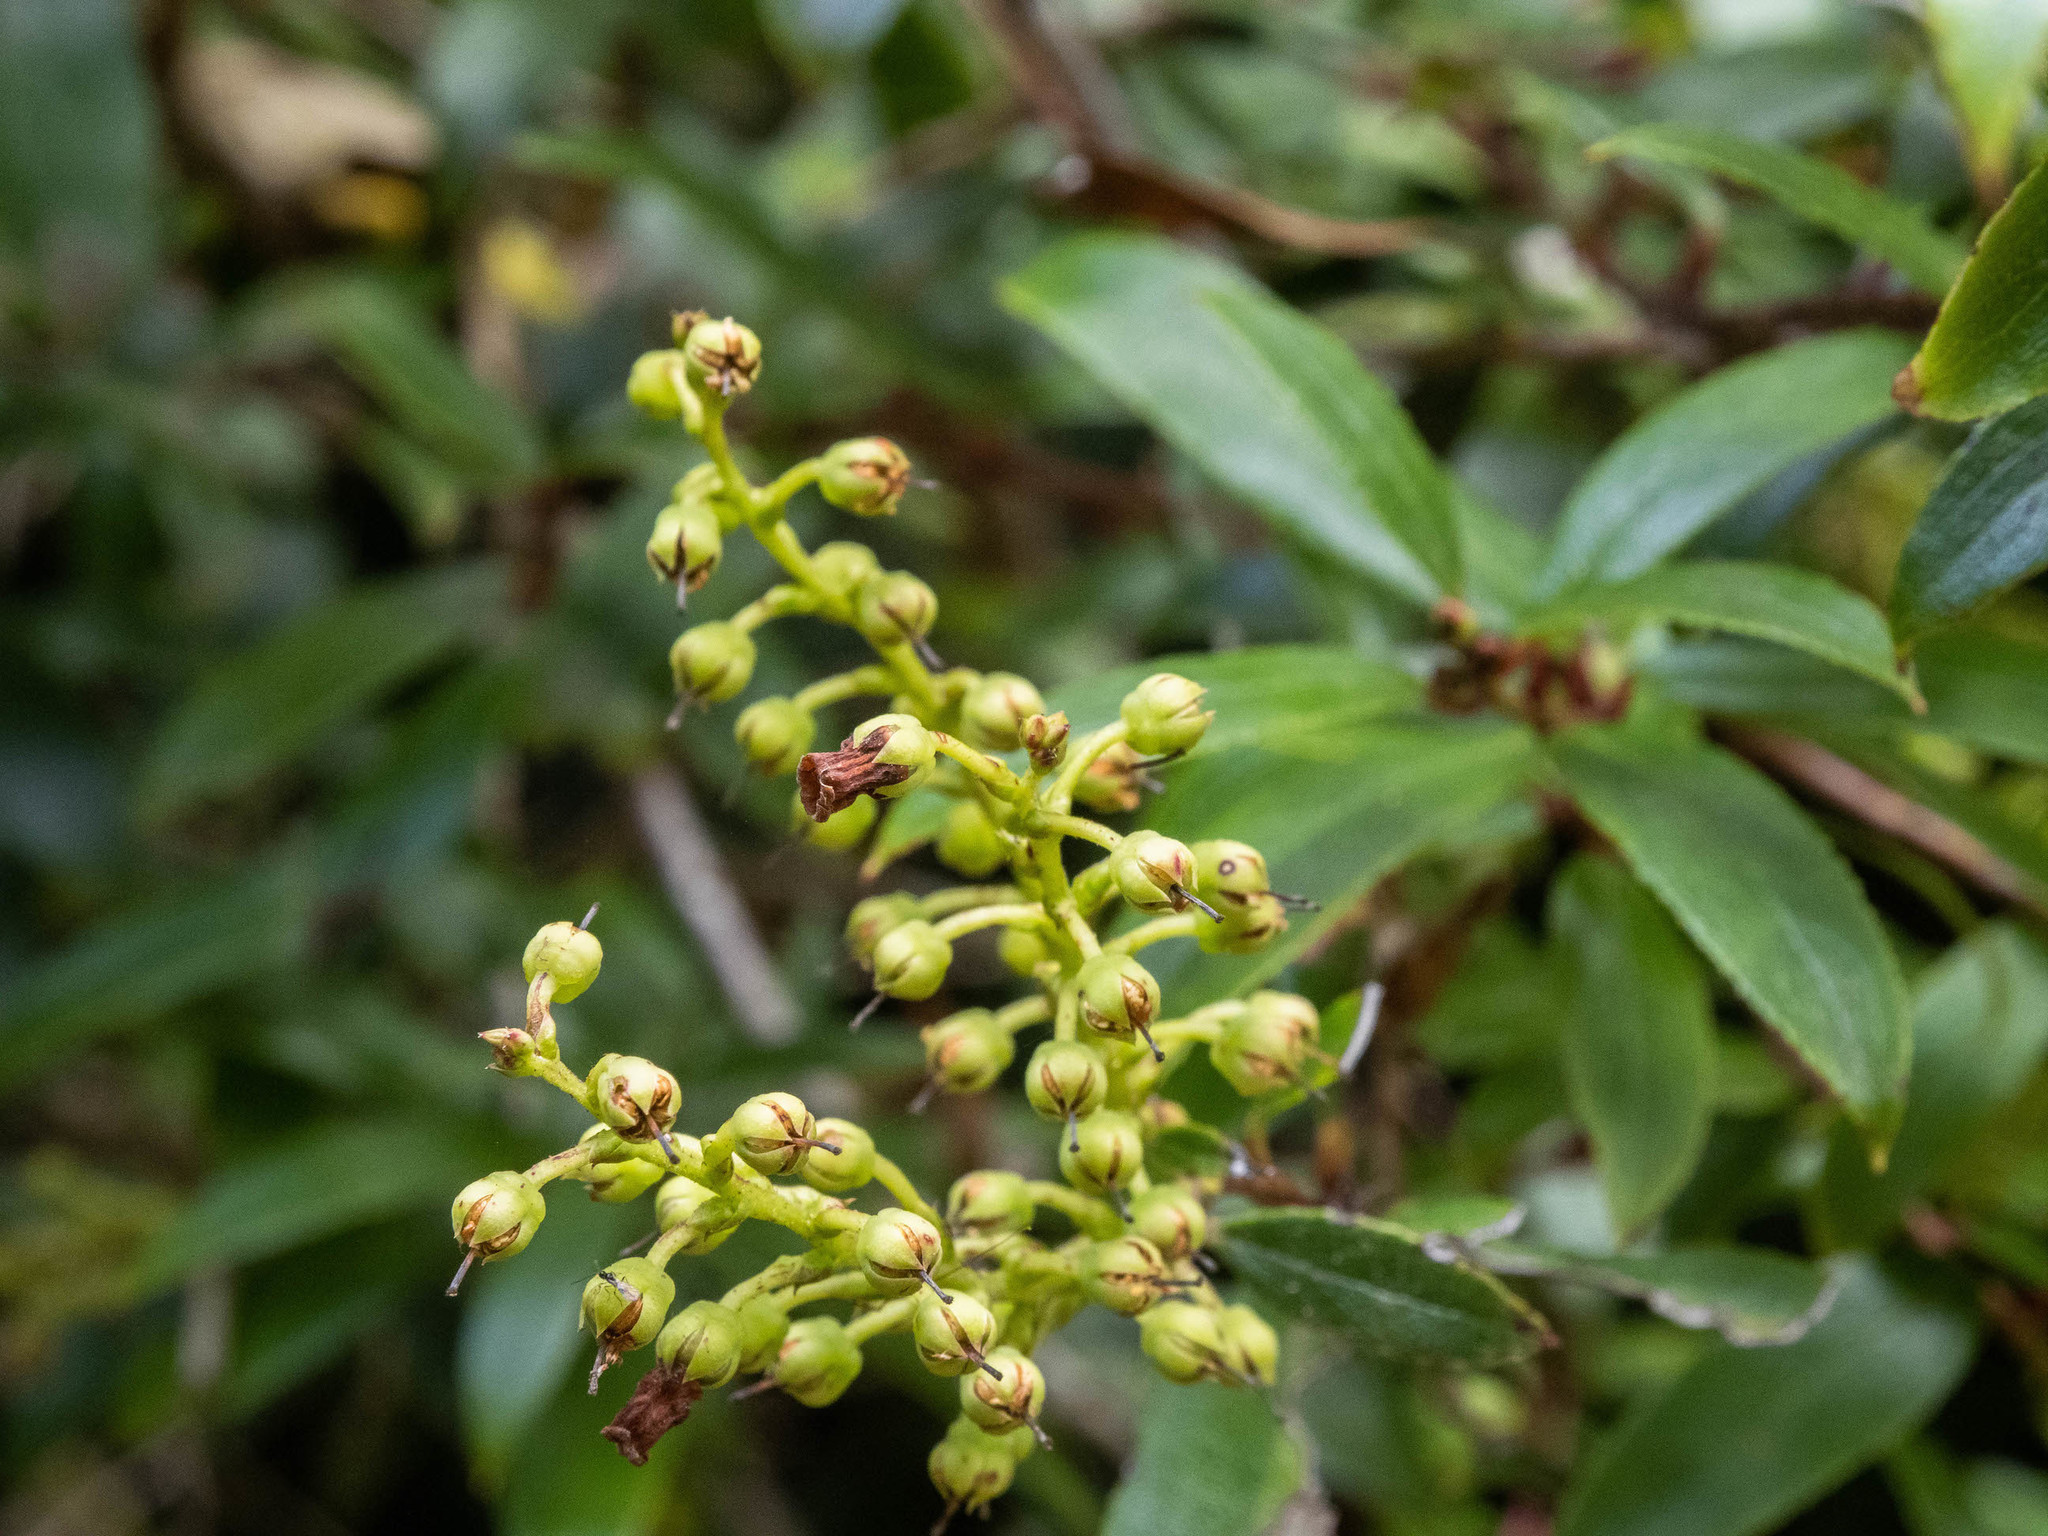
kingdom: Plantae
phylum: Tracheophyta
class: Magnoliopsida
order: Ericales
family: Ericaceae
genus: Gaultheria
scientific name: Gaultheria paniculata
